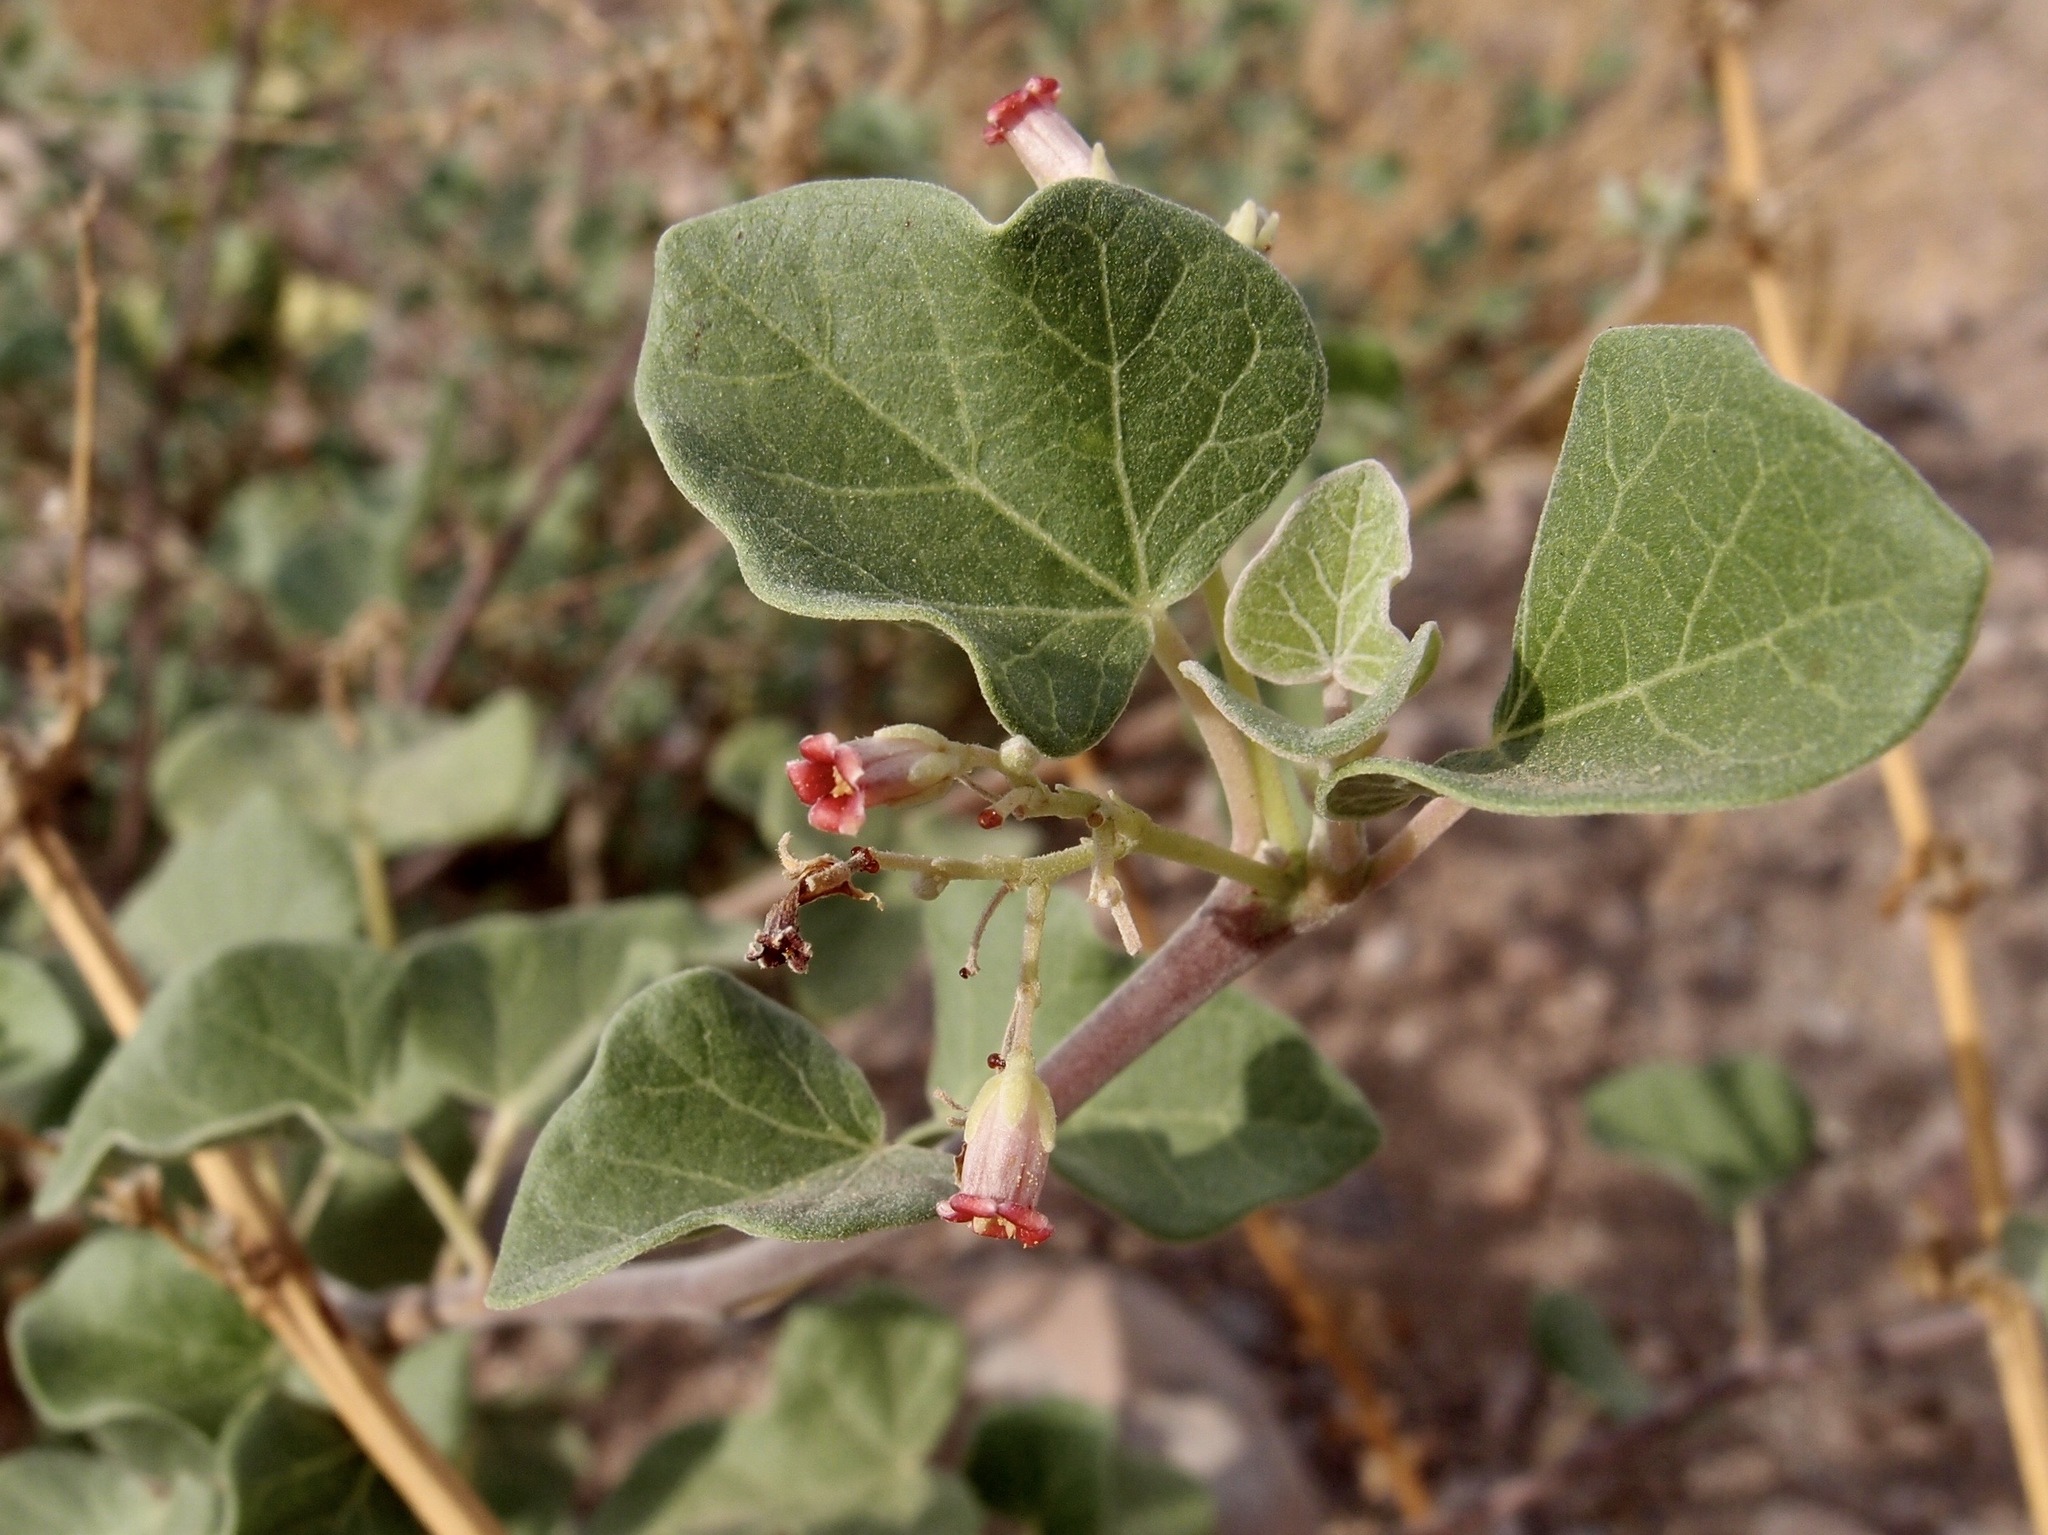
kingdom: Plantae
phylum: Tracheophyta
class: Magnoliopsida
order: Malpighiales
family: Euphorbiaceae
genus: Jatropha
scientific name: Jatropha cinerea
